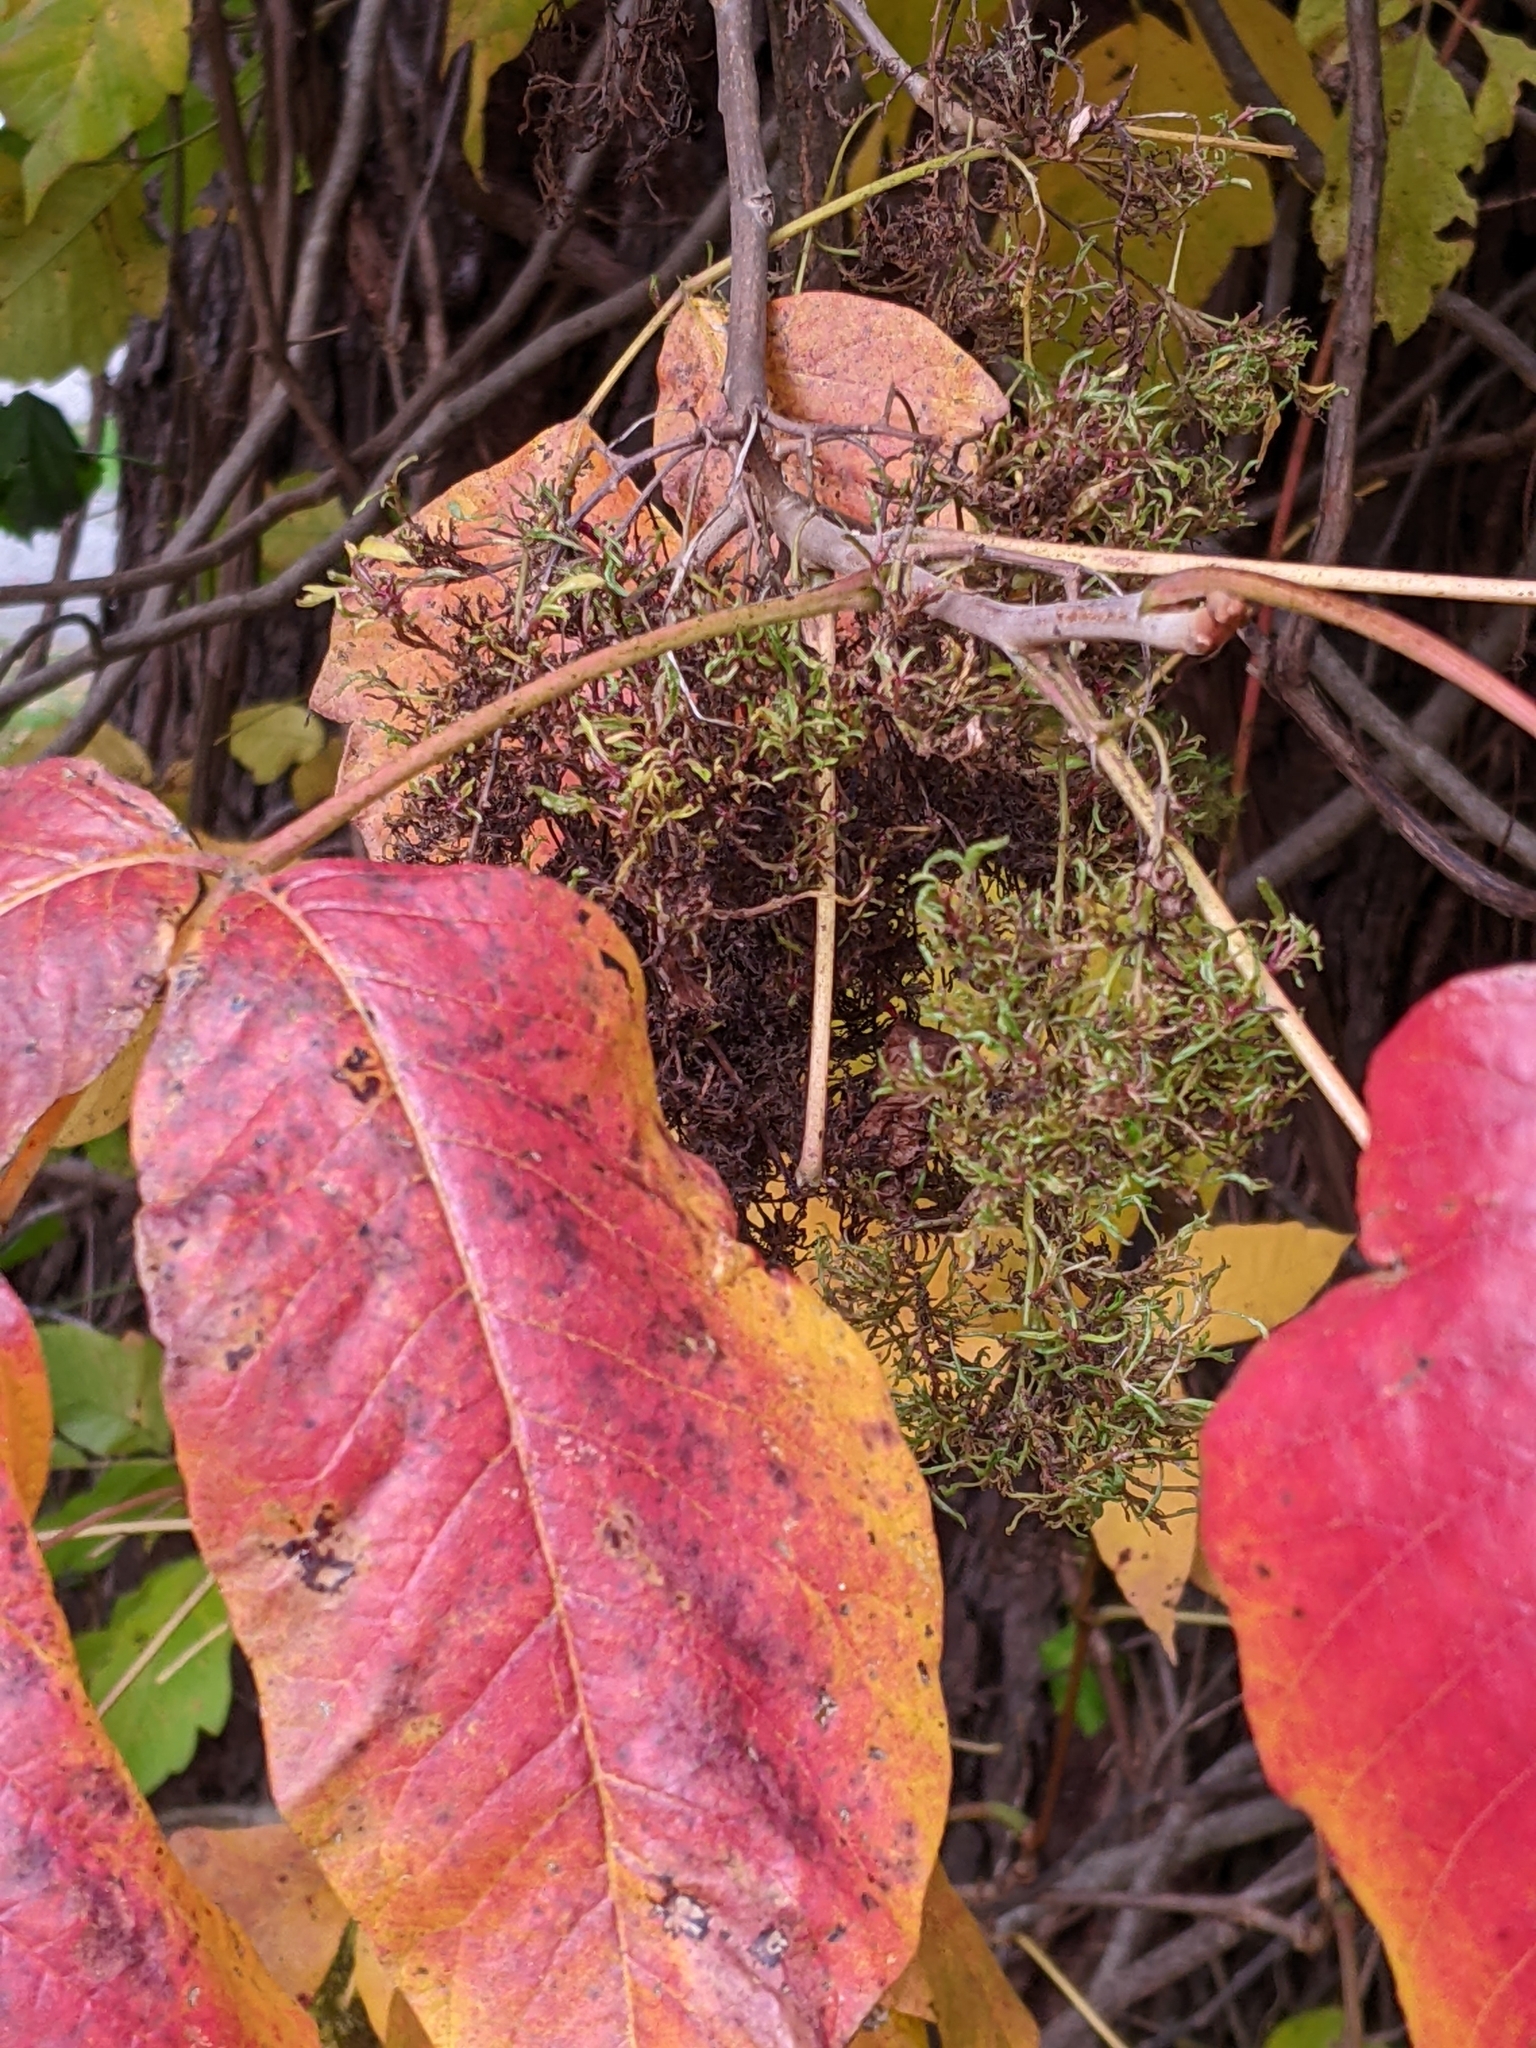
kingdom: Plantae
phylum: Tracheophyta
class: Magnoliopsida
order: Sapindales
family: Anacardiaceae
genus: Toxicodendron
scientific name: Toxicodendron radicans
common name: Poison ivy
